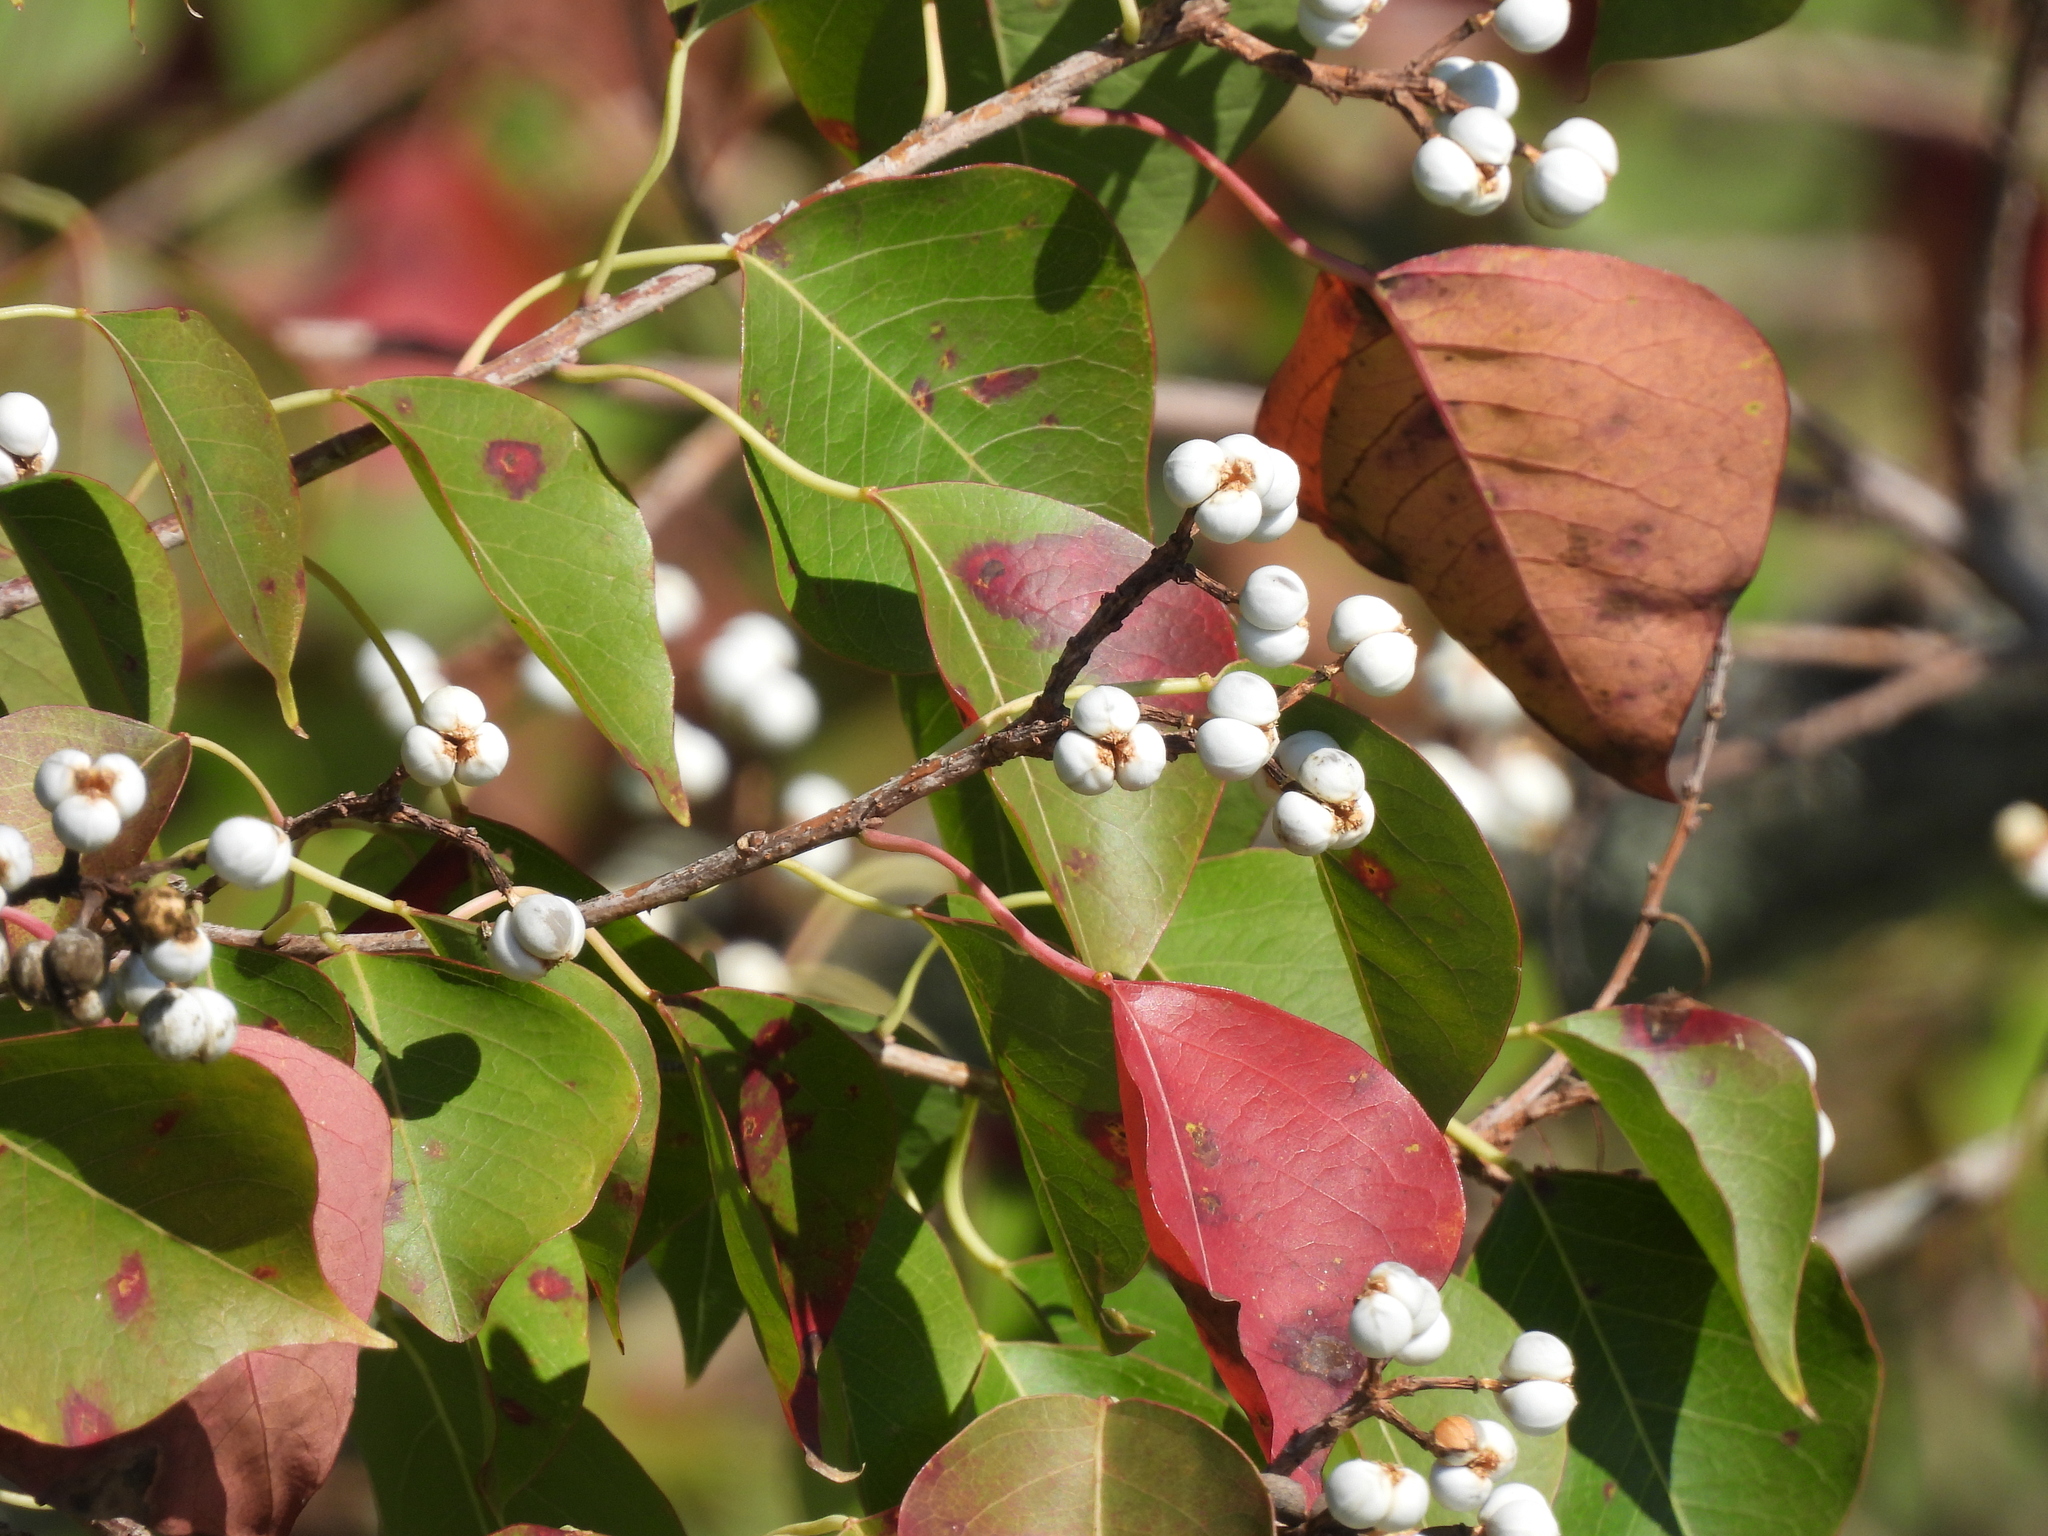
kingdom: Plantae
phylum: Tracheophyta
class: Magnoliopsida
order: Malpighiales
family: Euphorbiaceae
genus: Triadica
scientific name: Triadica sebifera
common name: Chinese tallow
